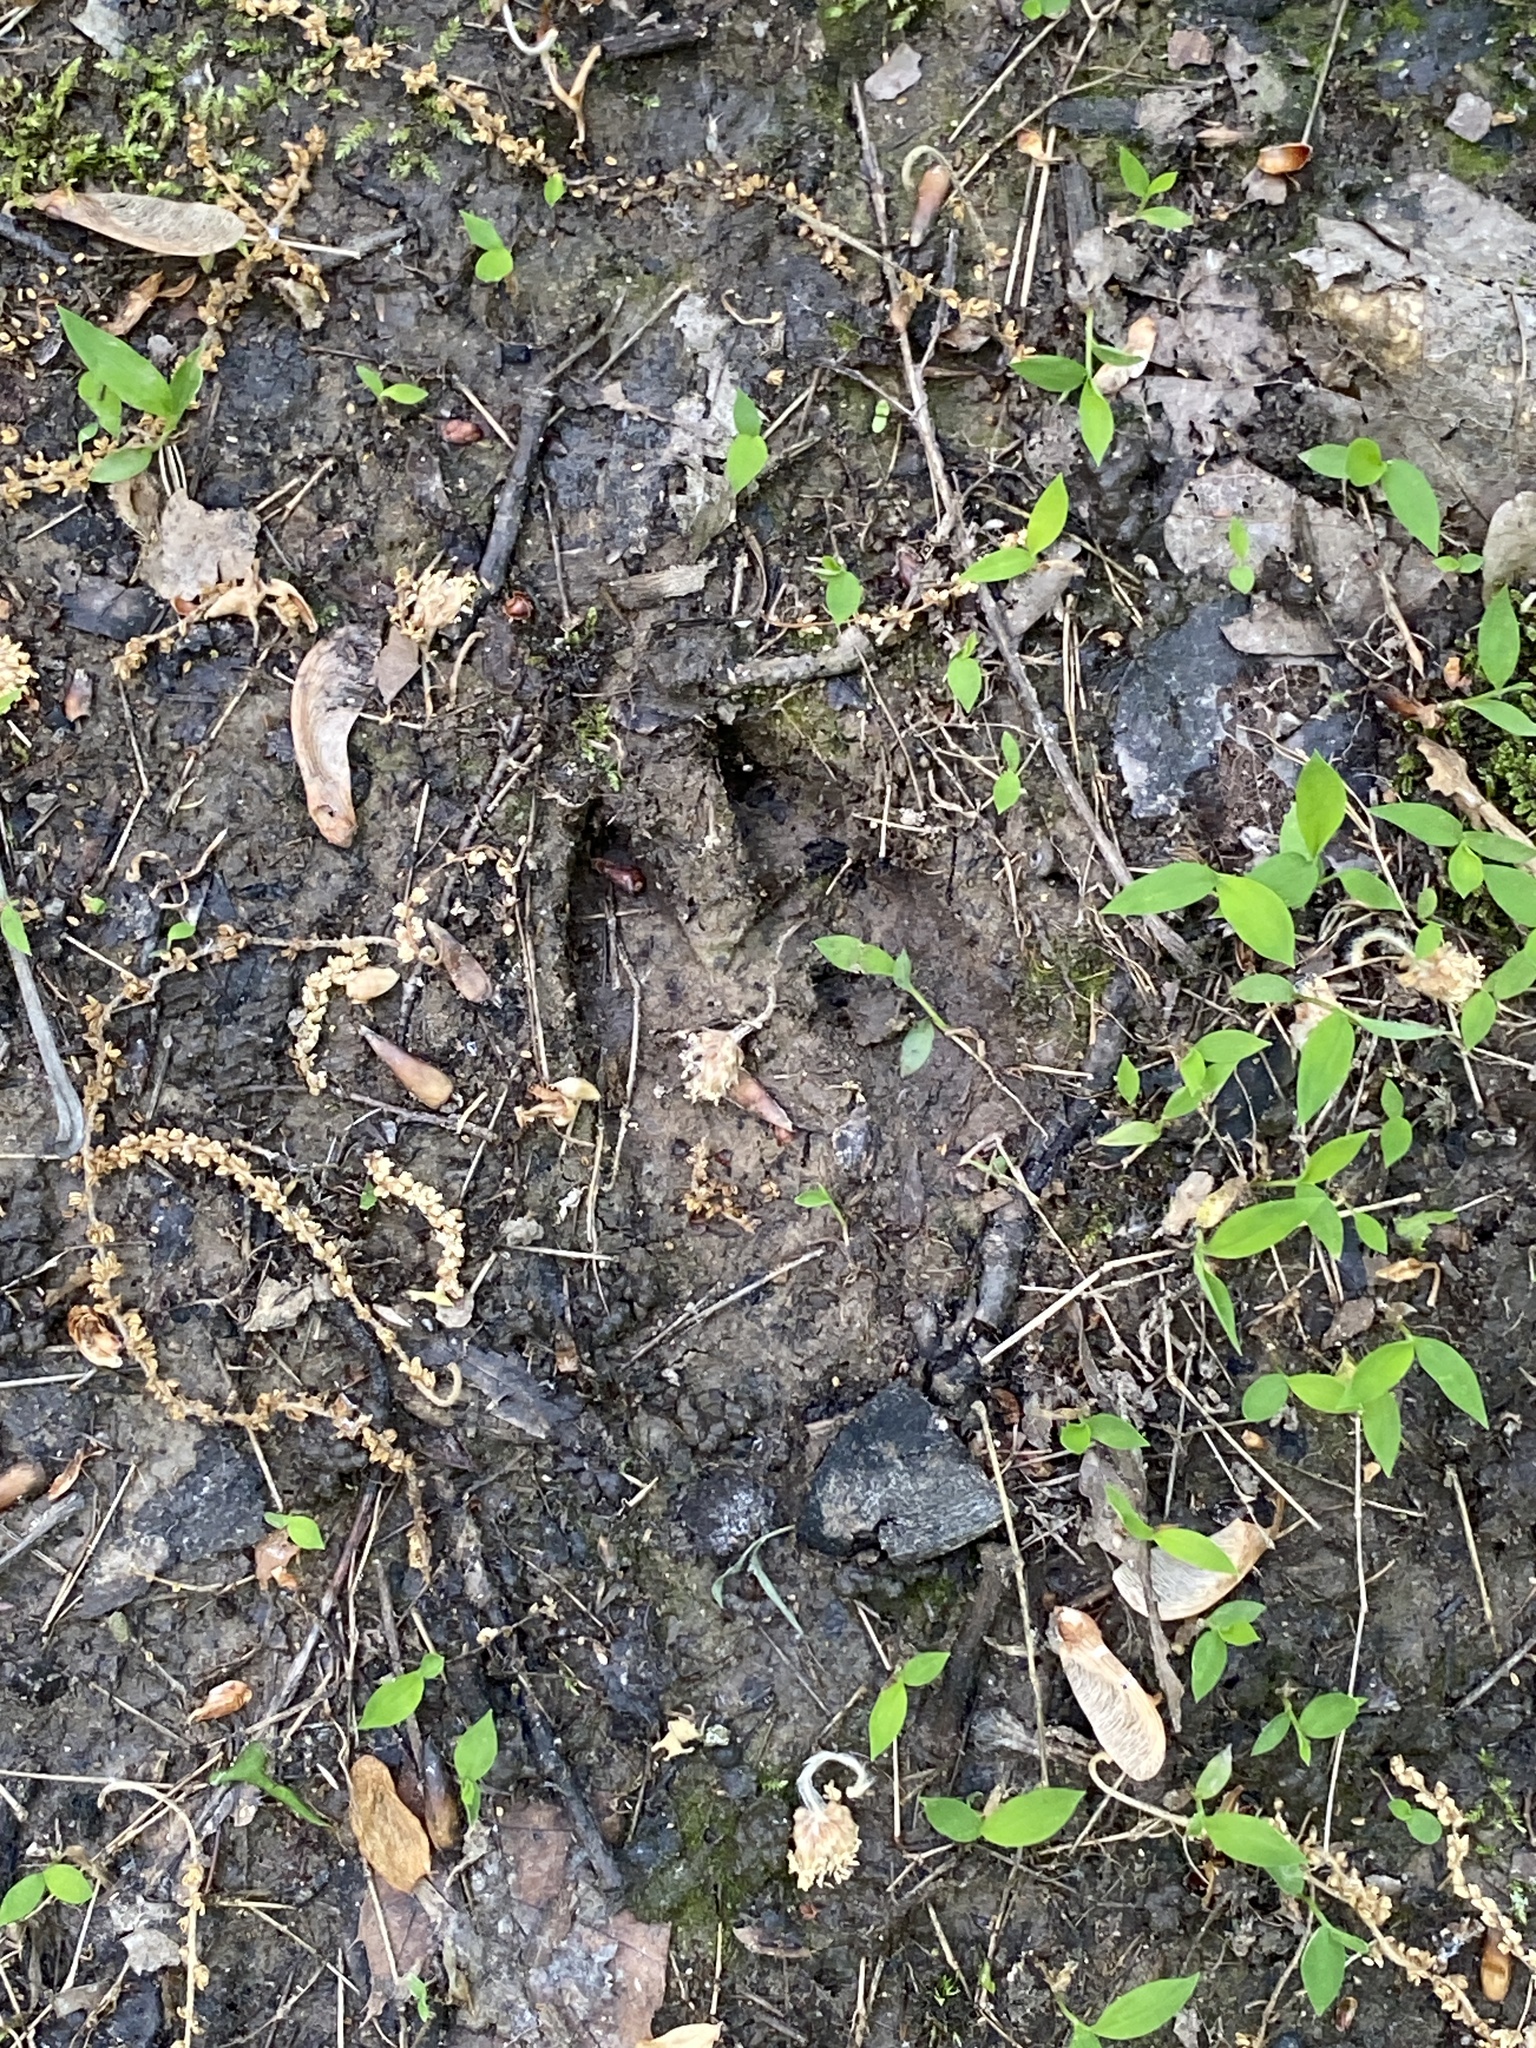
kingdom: Animalia
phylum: Chordata
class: Mammalia
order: Artiodactyla
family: Cervidae
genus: Odocoileus
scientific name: Odocoileus virginianus
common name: White-tailed deer
